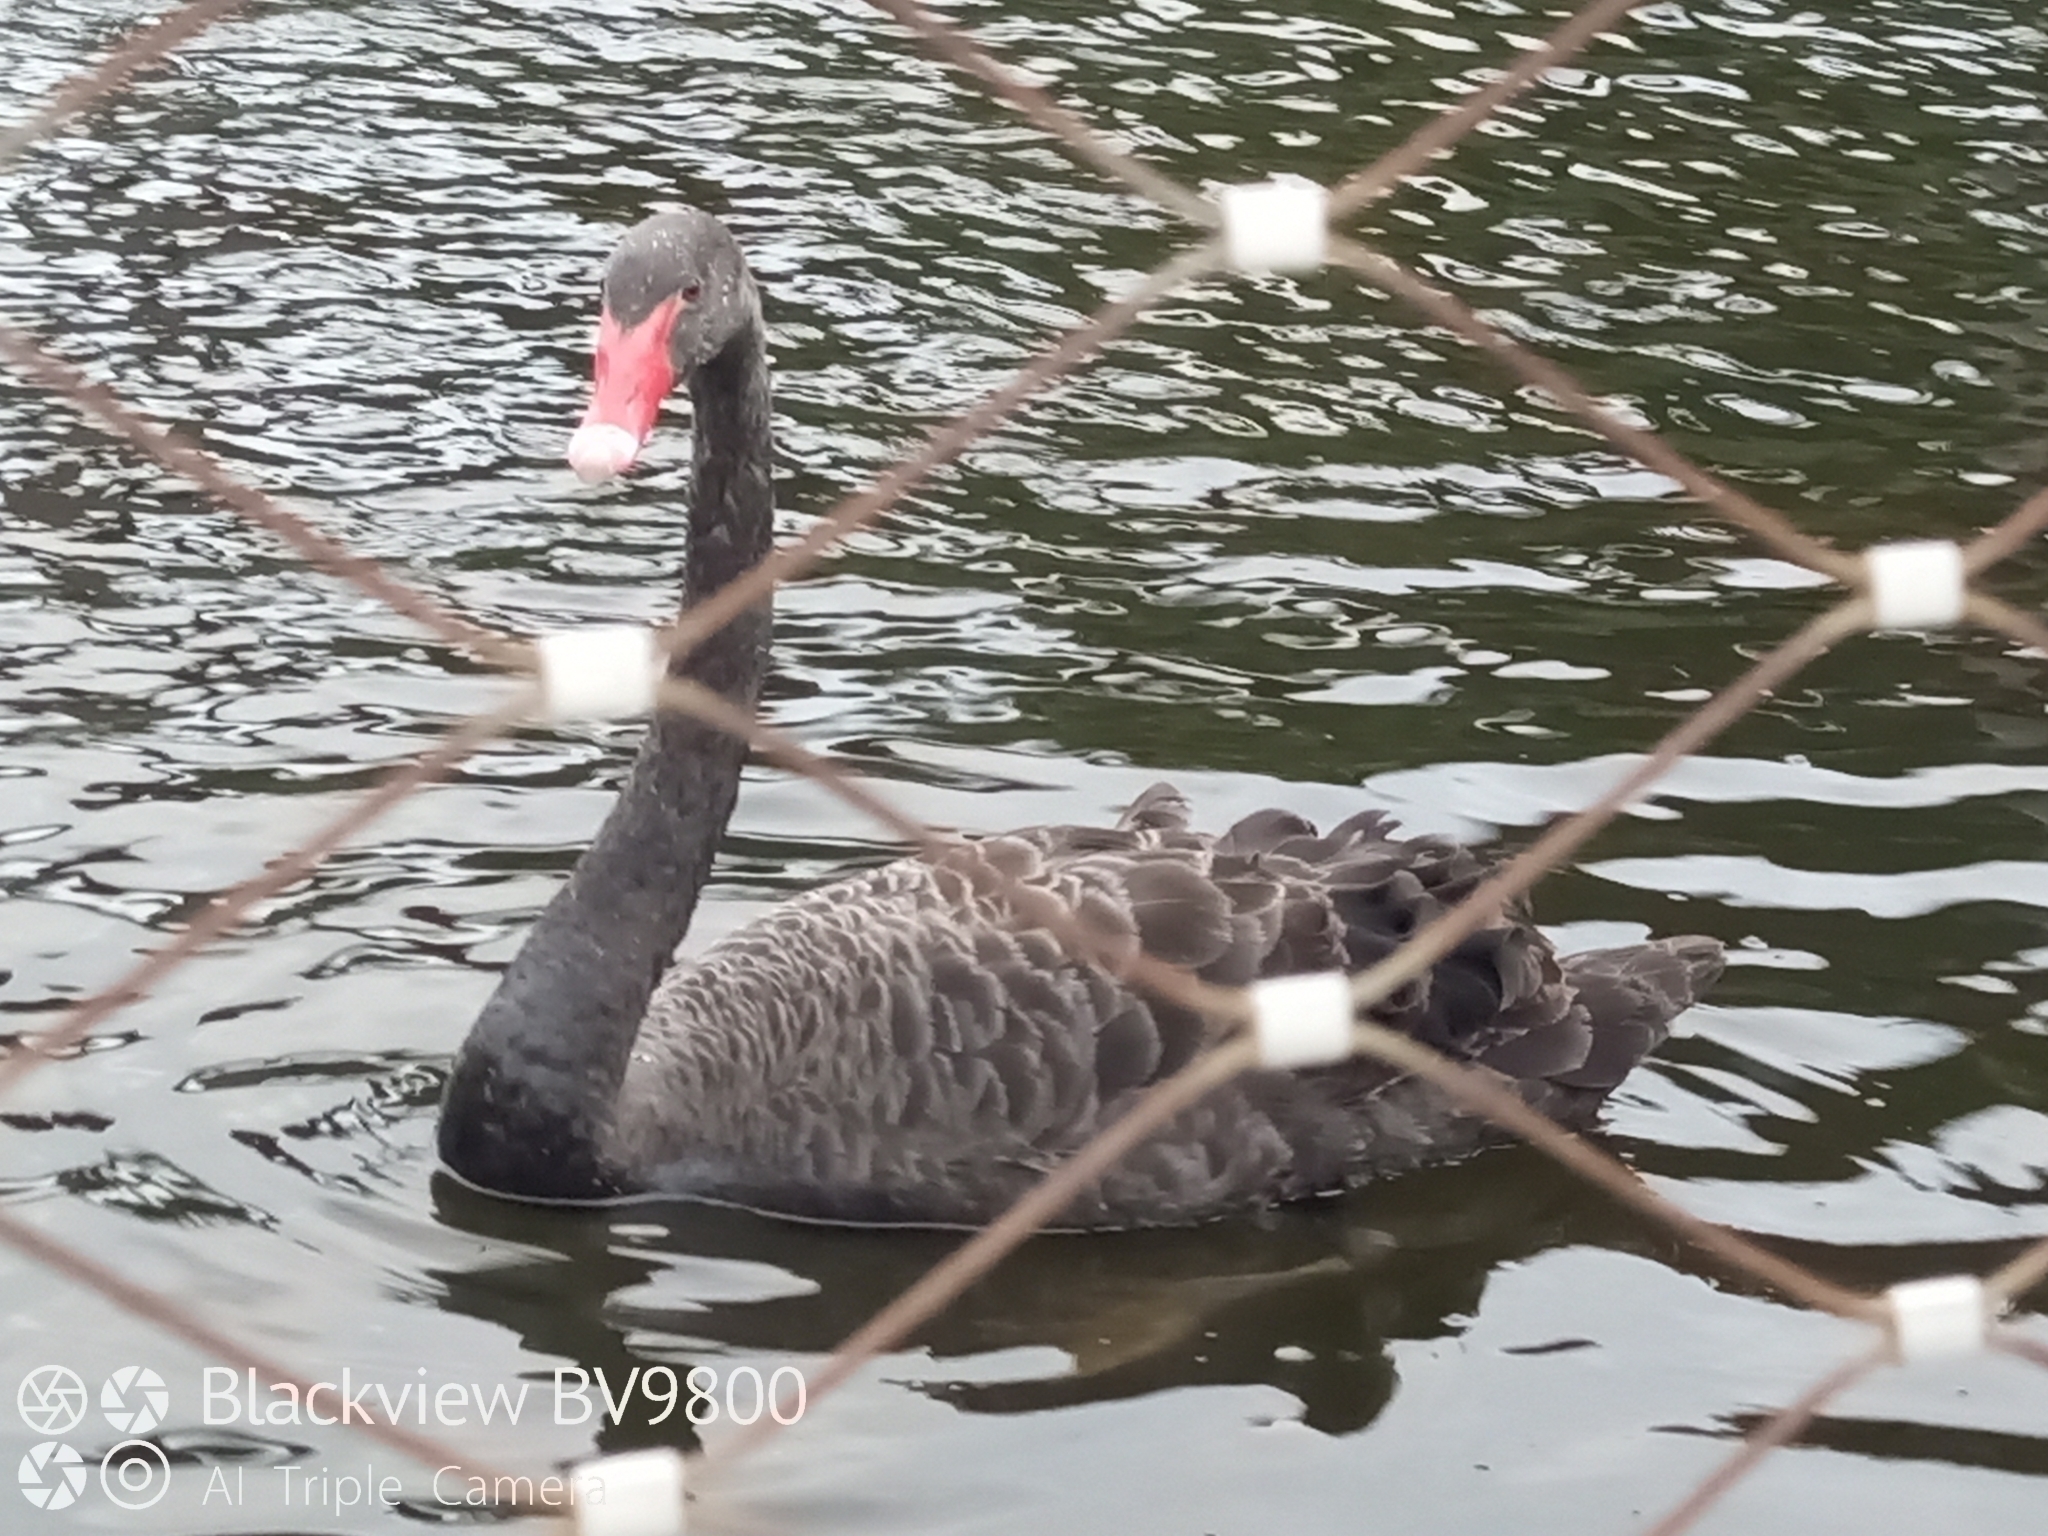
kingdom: Animalia
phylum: Chordata
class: Aves
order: Anseriformes
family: Anatidae
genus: Cygnus
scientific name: Cygnus atratus
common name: Black swan
